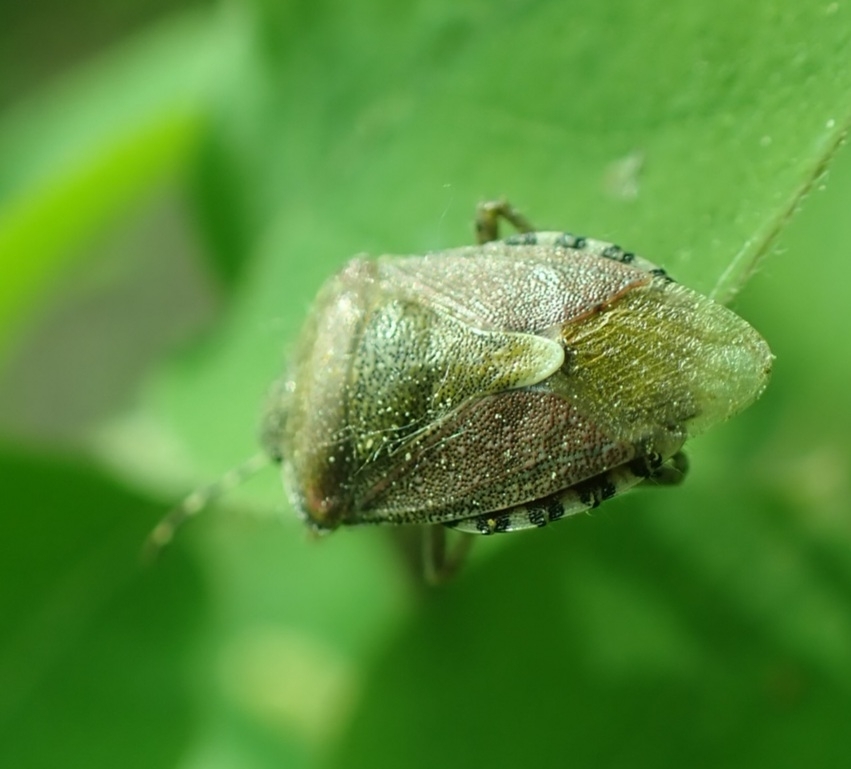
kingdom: Animalia
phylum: Arthropoda
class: Insecta
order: Hemiptera
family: Pentatomidae
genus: Dolycoris
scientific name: Dolycoris baccarum
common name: Sloe bug
